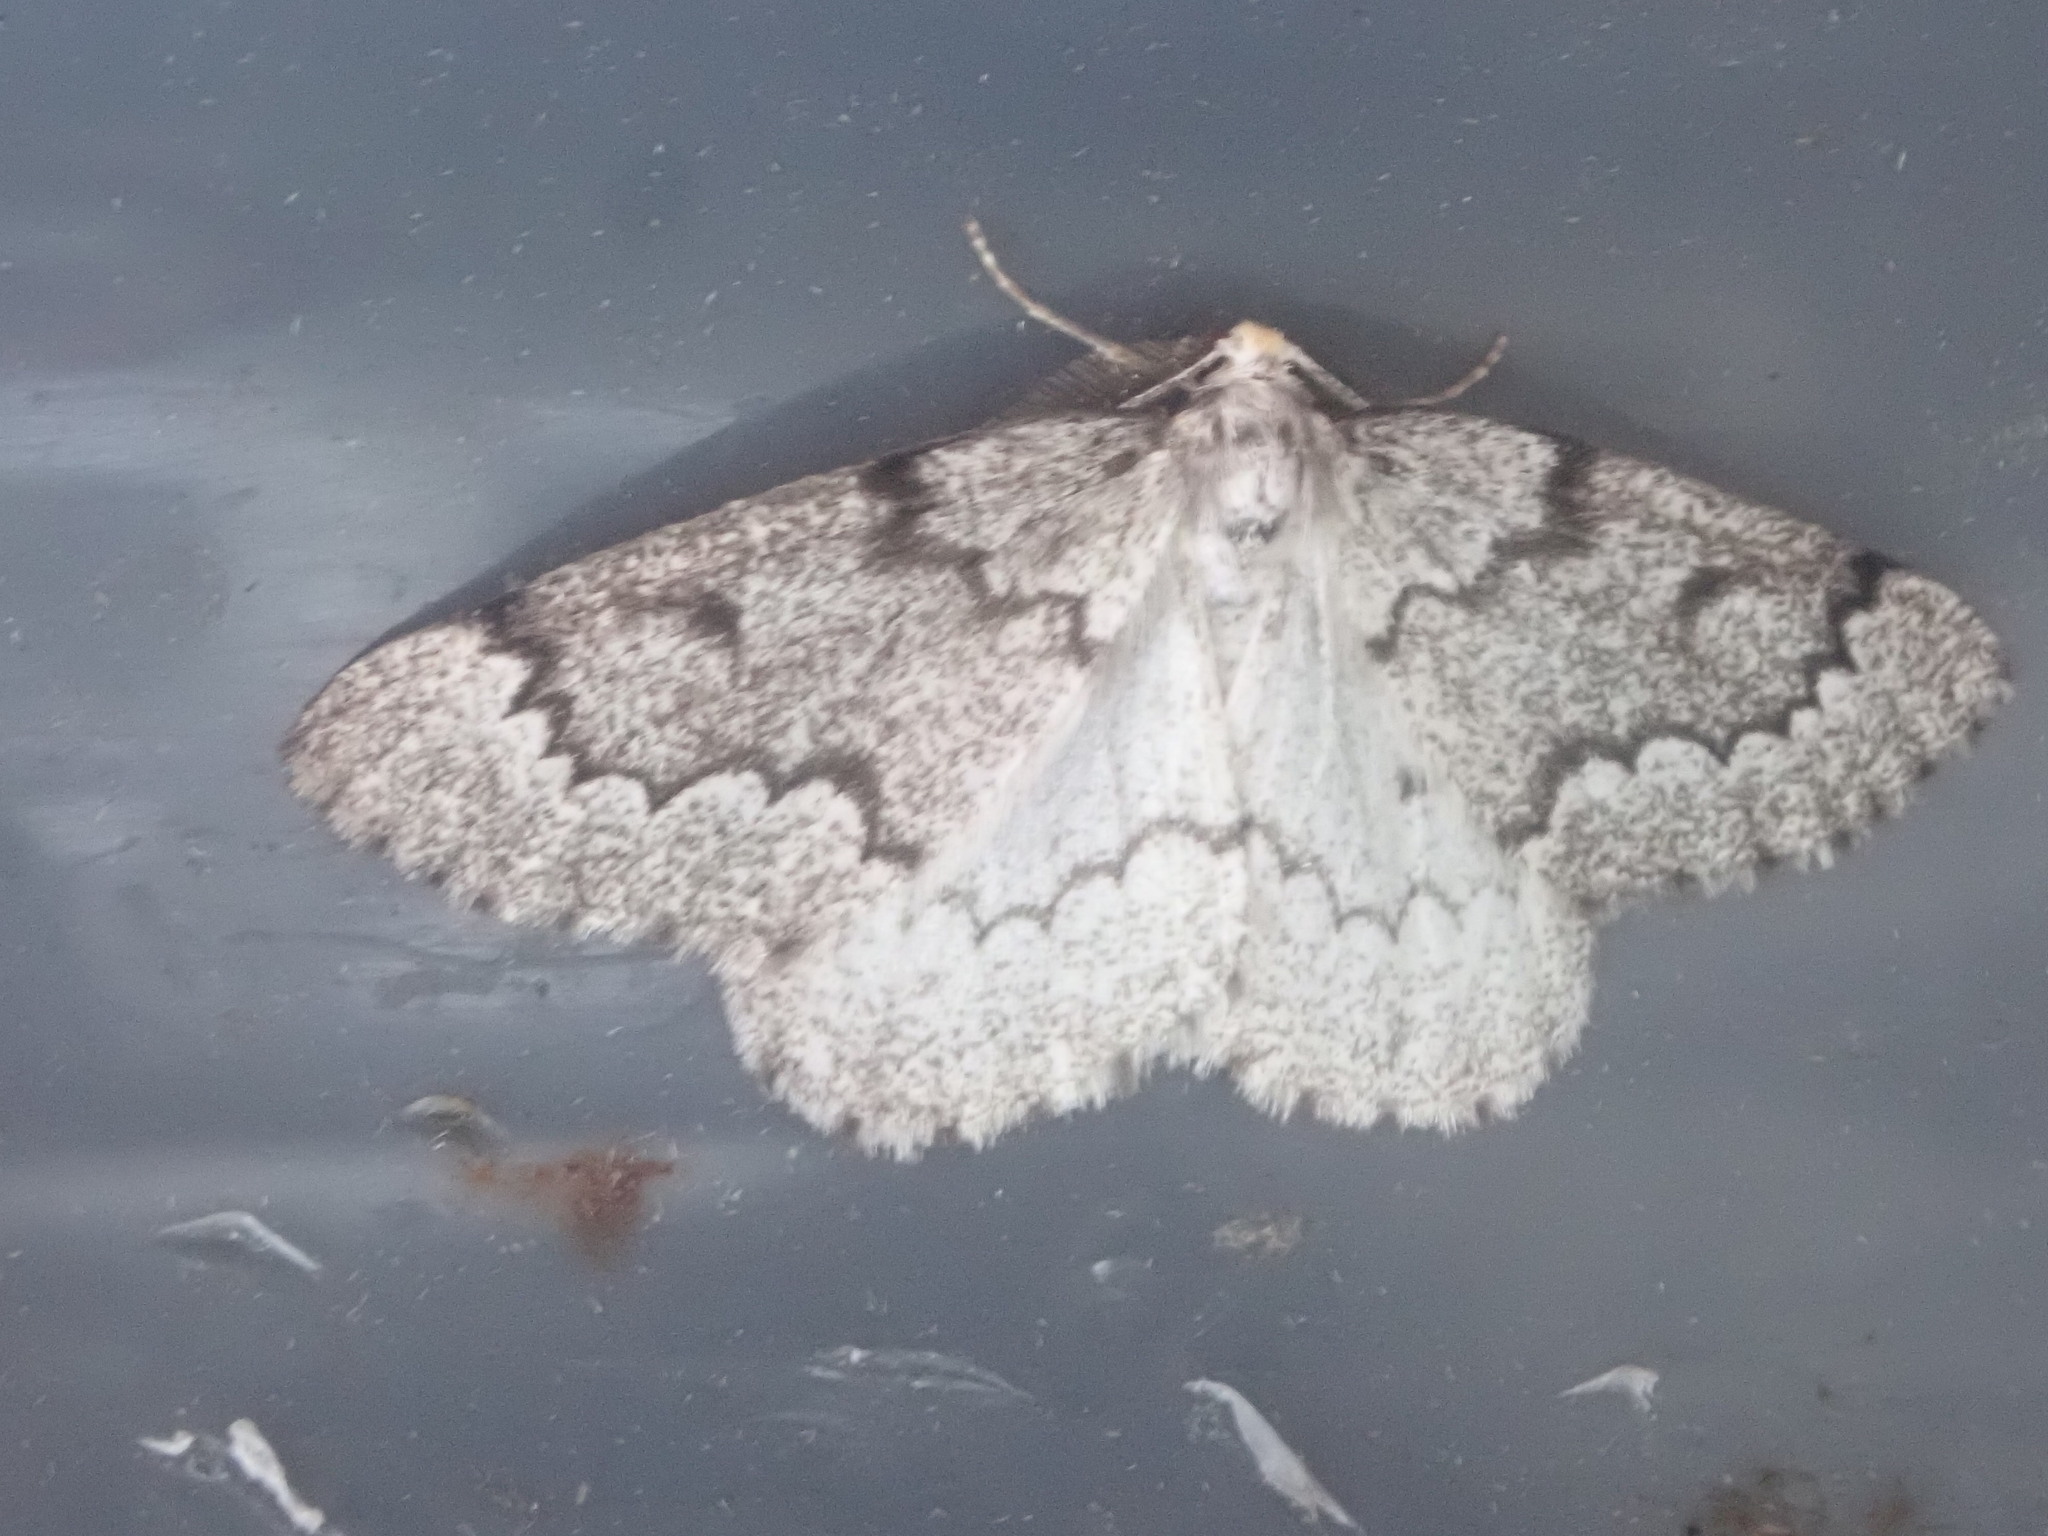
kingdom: Animalia
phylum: Arthropoda
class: Insecta
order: Lepidoptera
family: Geometridae
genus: Nepytia
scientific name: Nepytia canosaria
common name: False hemlock looper
